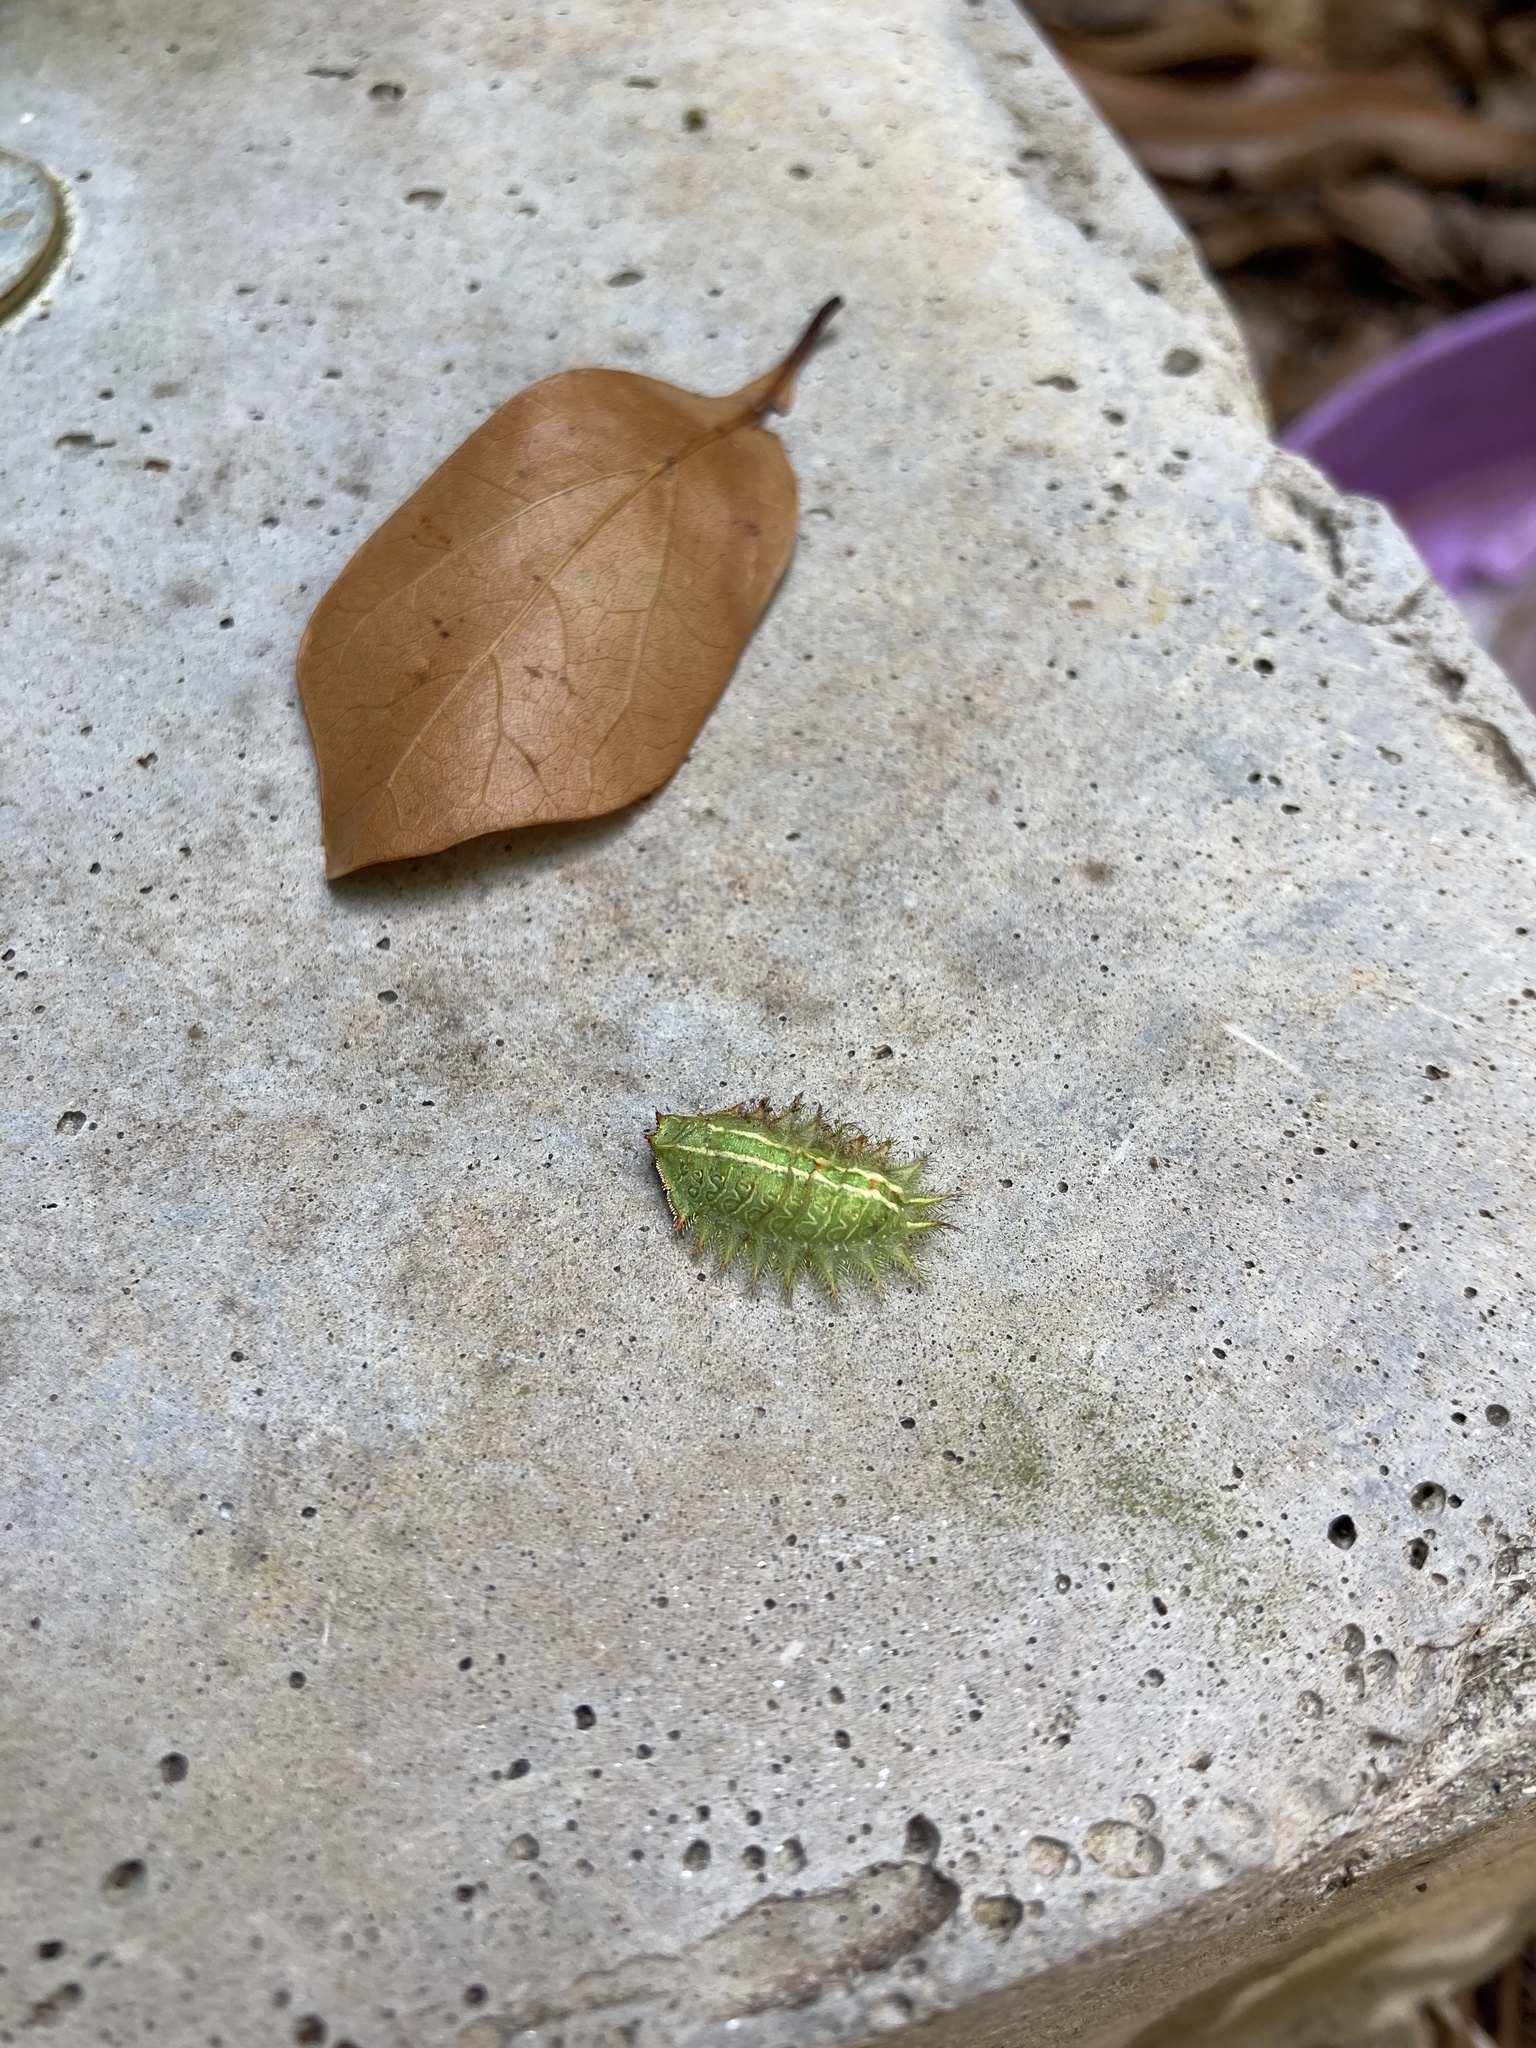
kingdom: Animalia
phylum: Arthropoda
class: Insecta
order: Lepidoptera
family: Limacodidae
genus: Isa
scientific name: Isa textula
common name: Crowned slug moth
